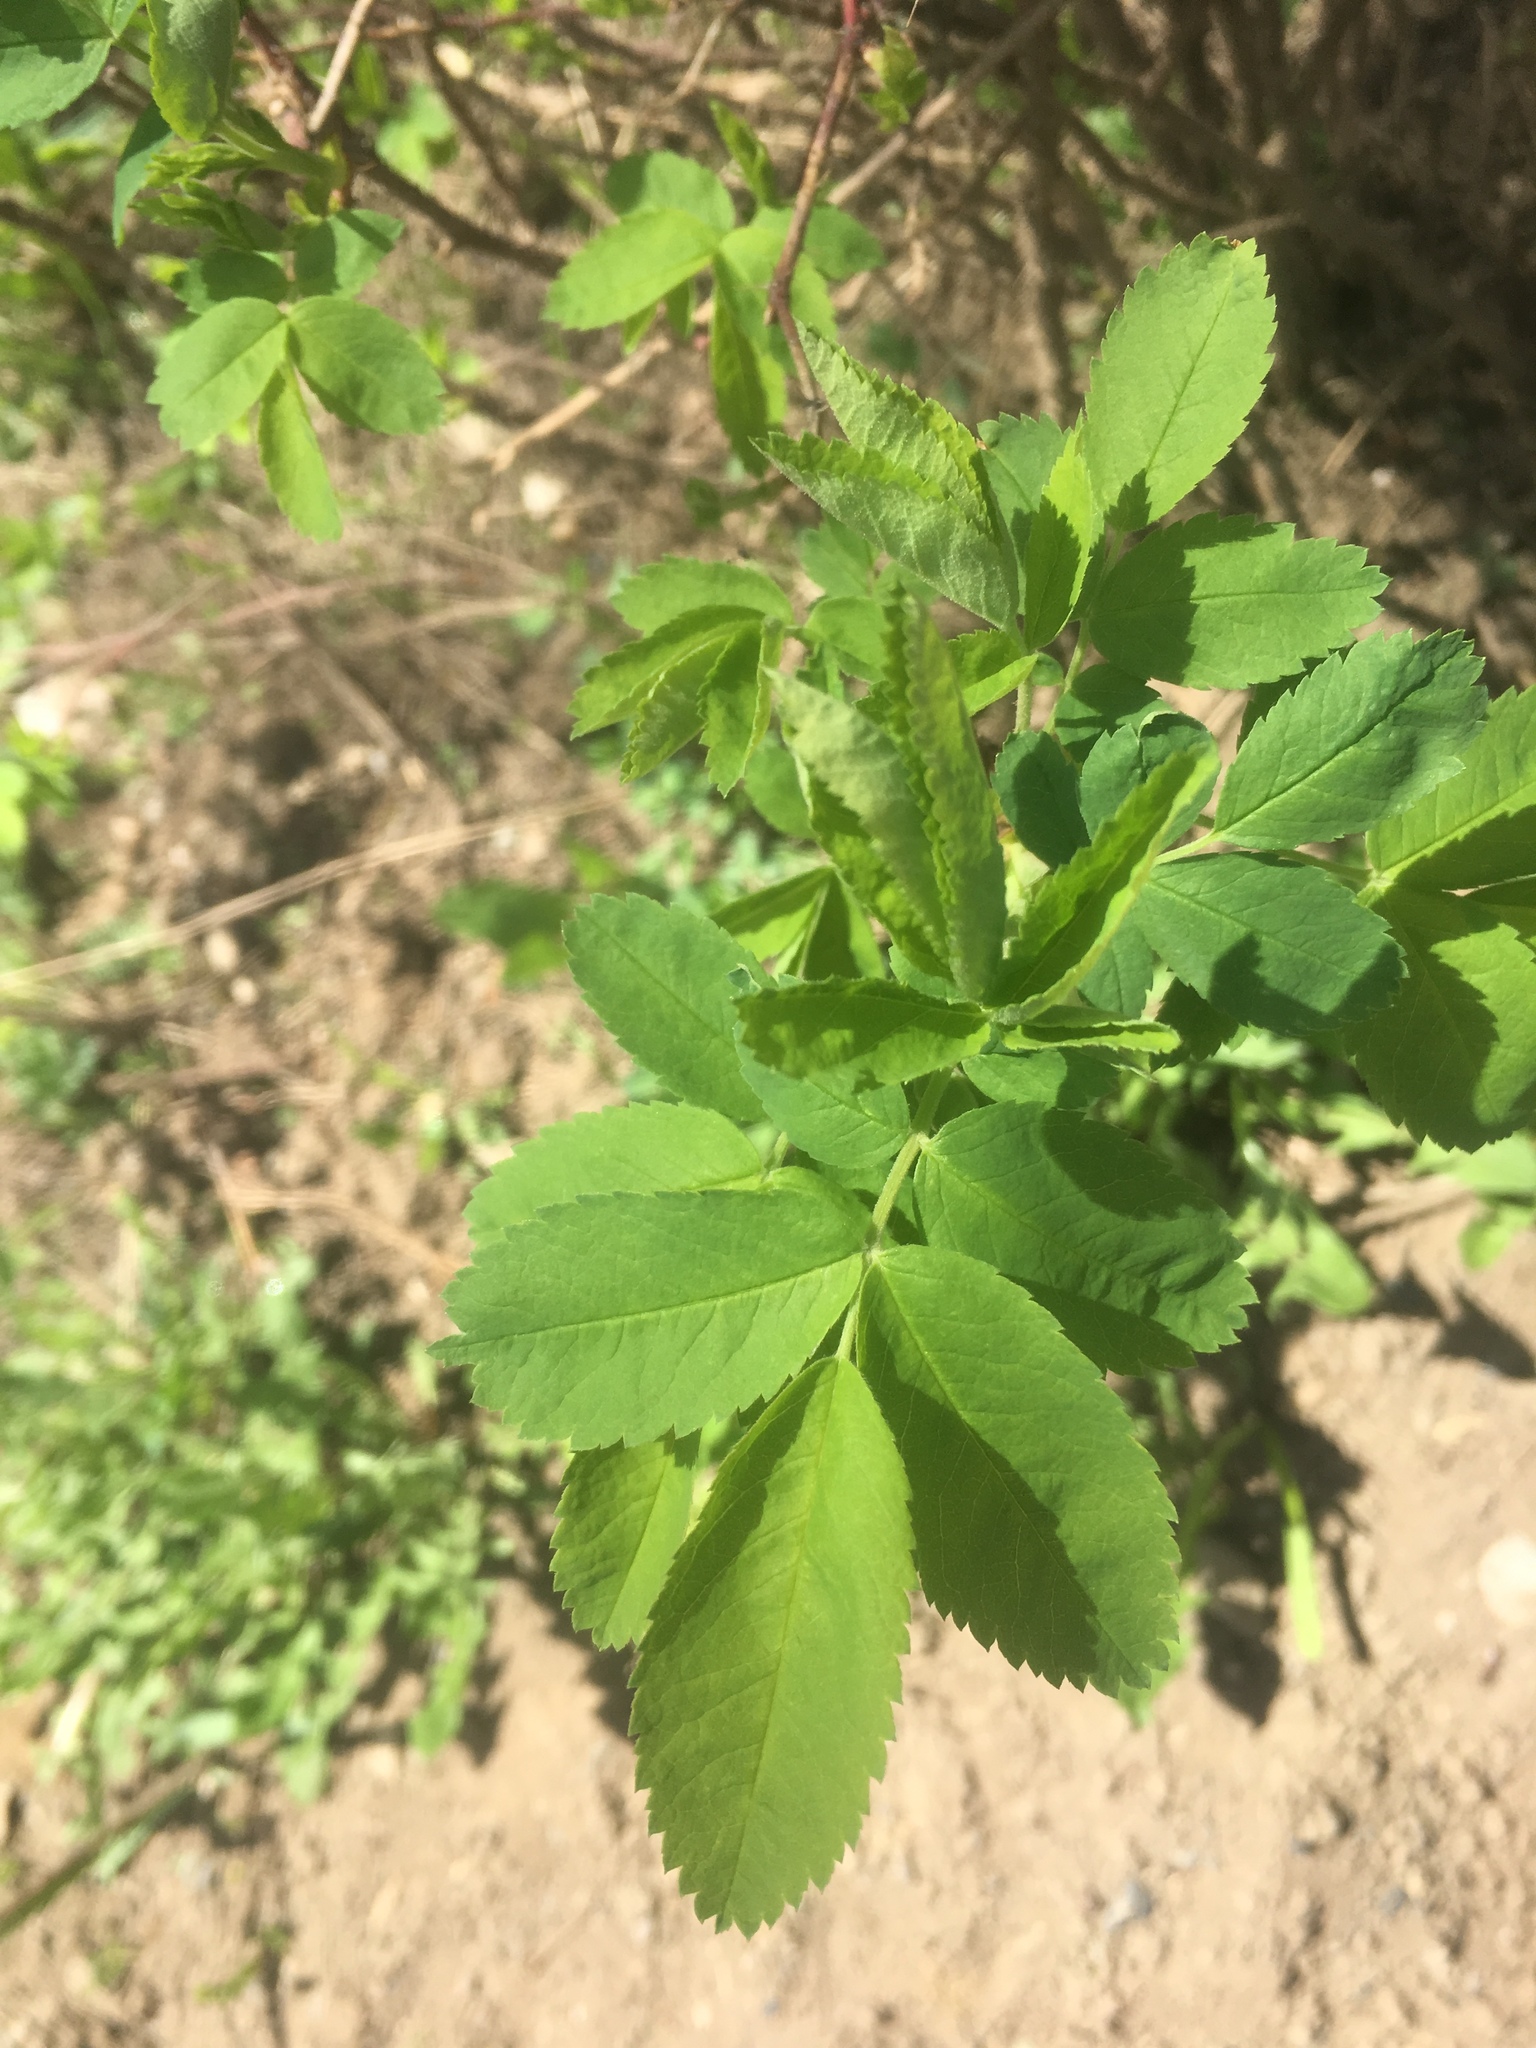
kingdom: Plantae
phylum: Tracheophyta
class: Magnoliopsida
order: Rosales
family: Rosaceae
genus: Rosa
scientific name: Rosa acicularis
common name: Prickly rose
